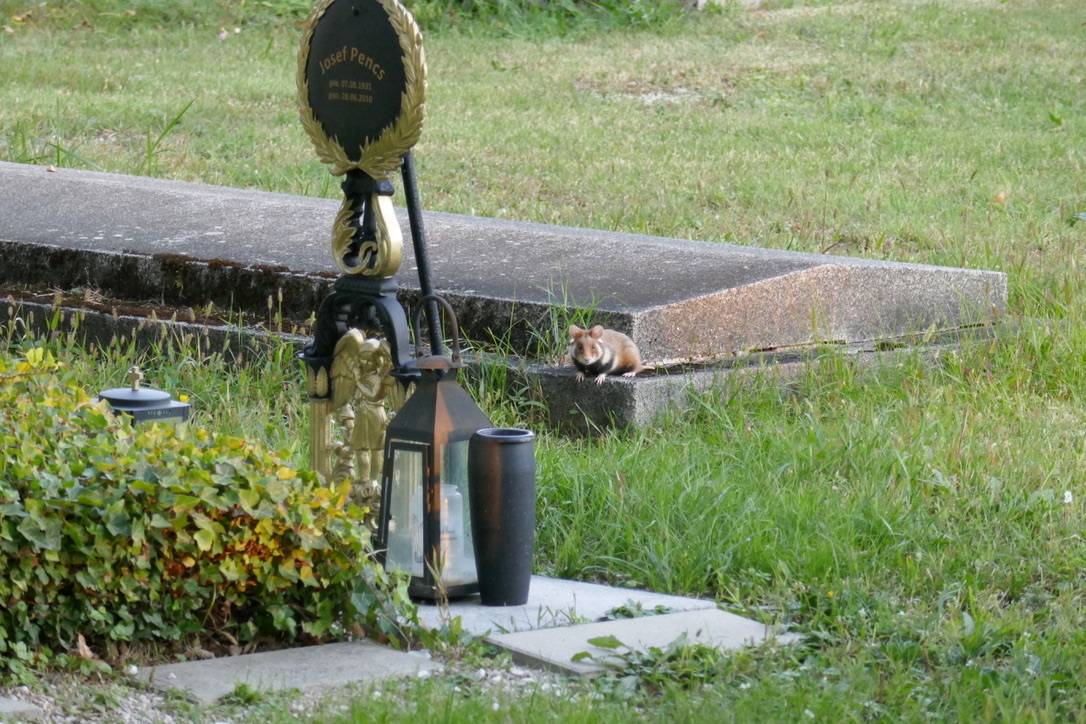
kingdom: Animalia
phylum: Chordata
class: Mammalia
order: Rodentia
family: Cricetidae
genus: Cricetus
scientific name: Cricetus cricetus
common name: Common hamster
